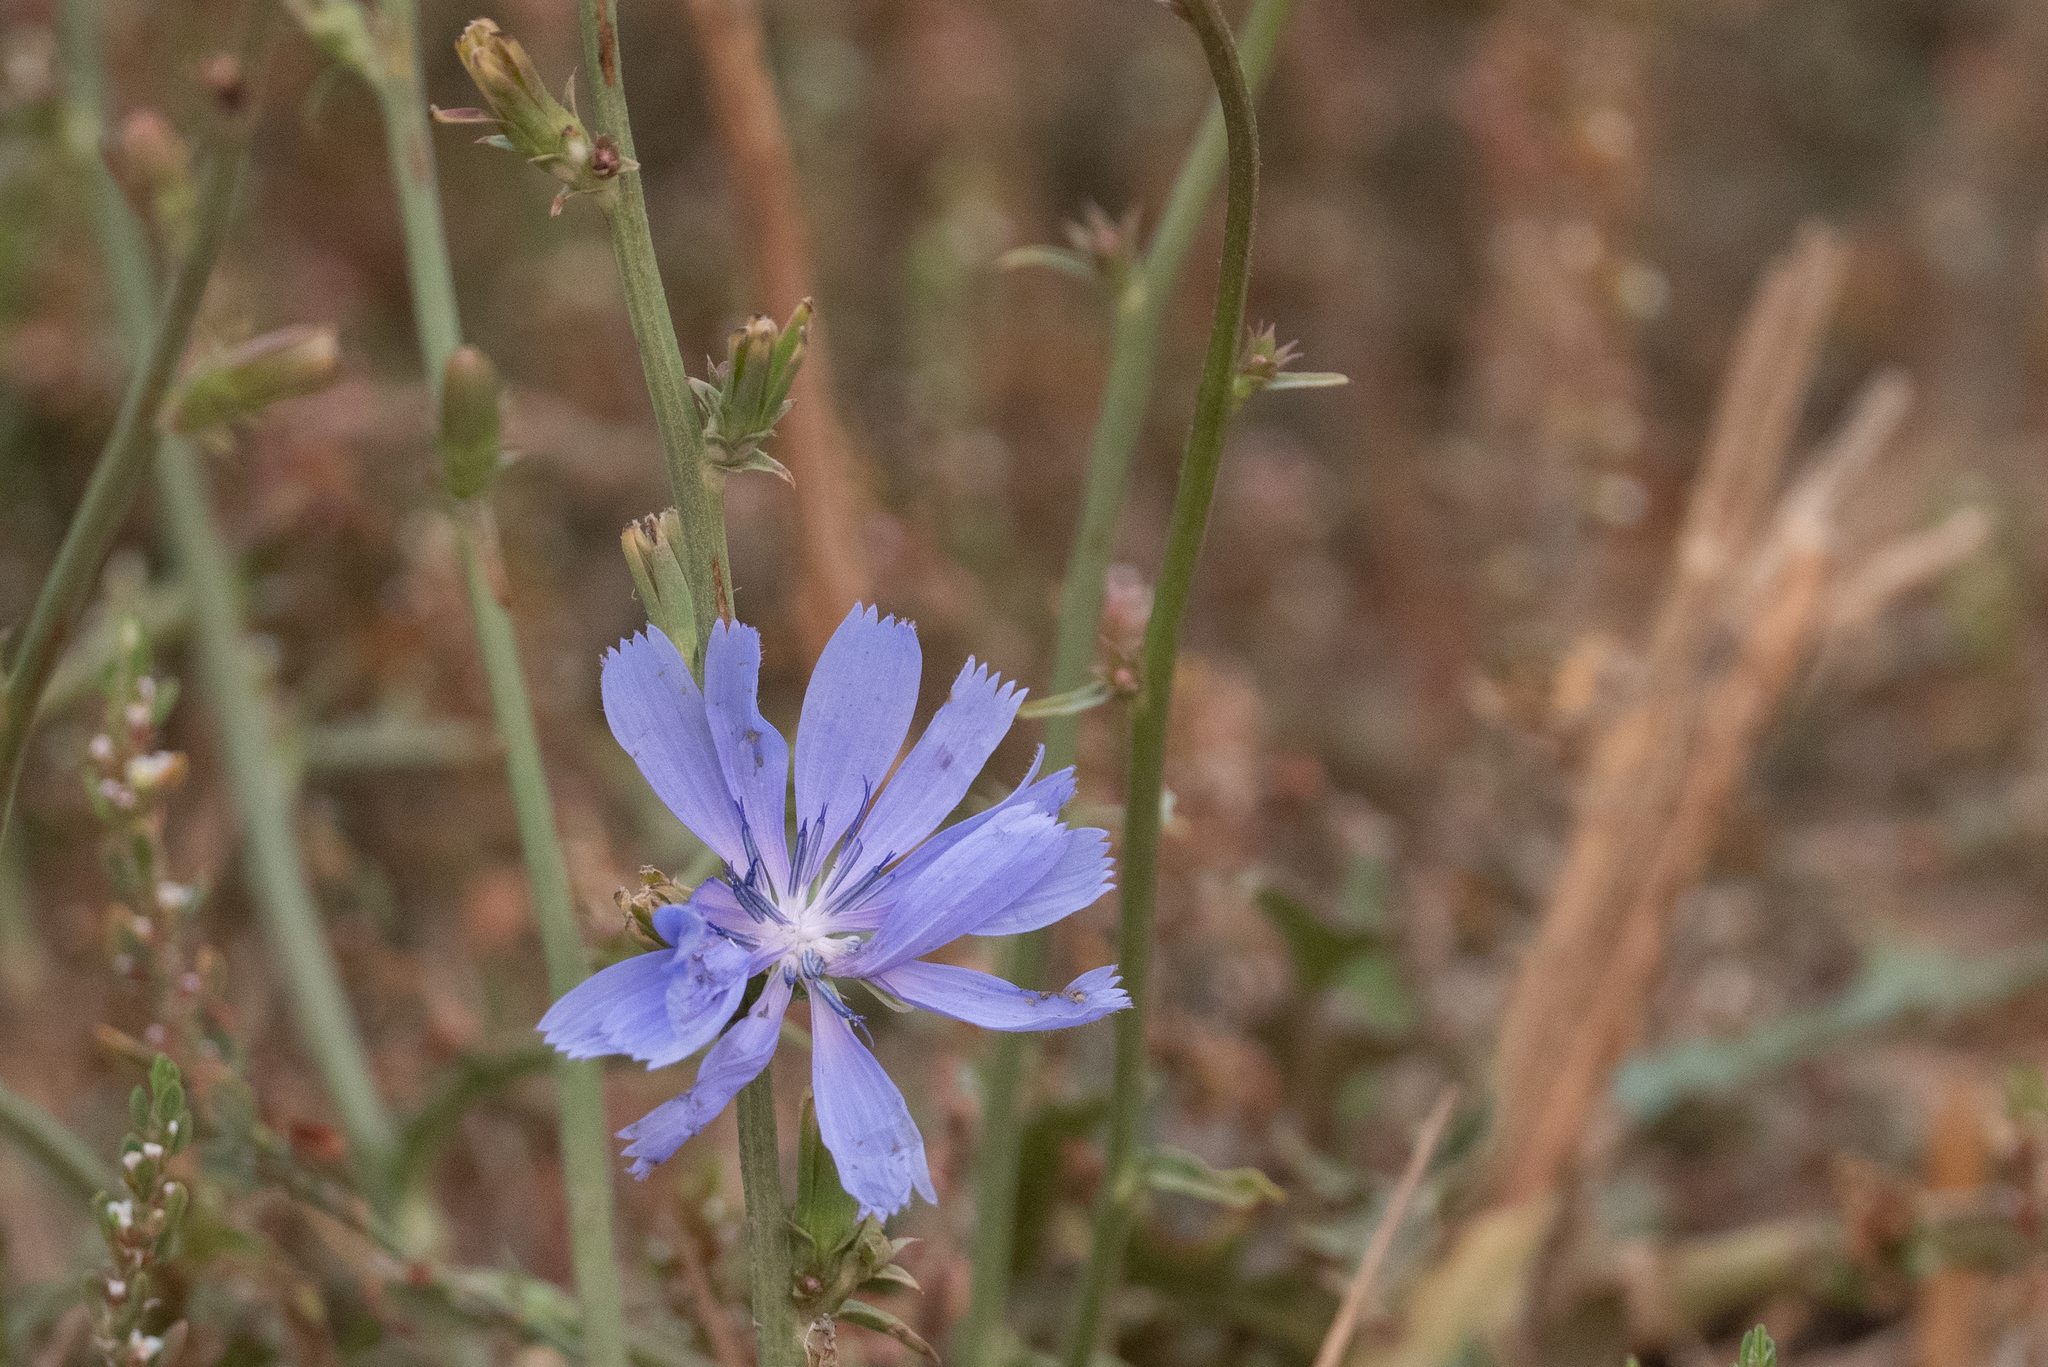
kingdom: Plantae
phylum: Tracheophyta
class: Magnoliopsida
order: Asterales
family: Asteraceae
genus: Cichorium
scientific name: Cichorium intybus
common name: Chicory
